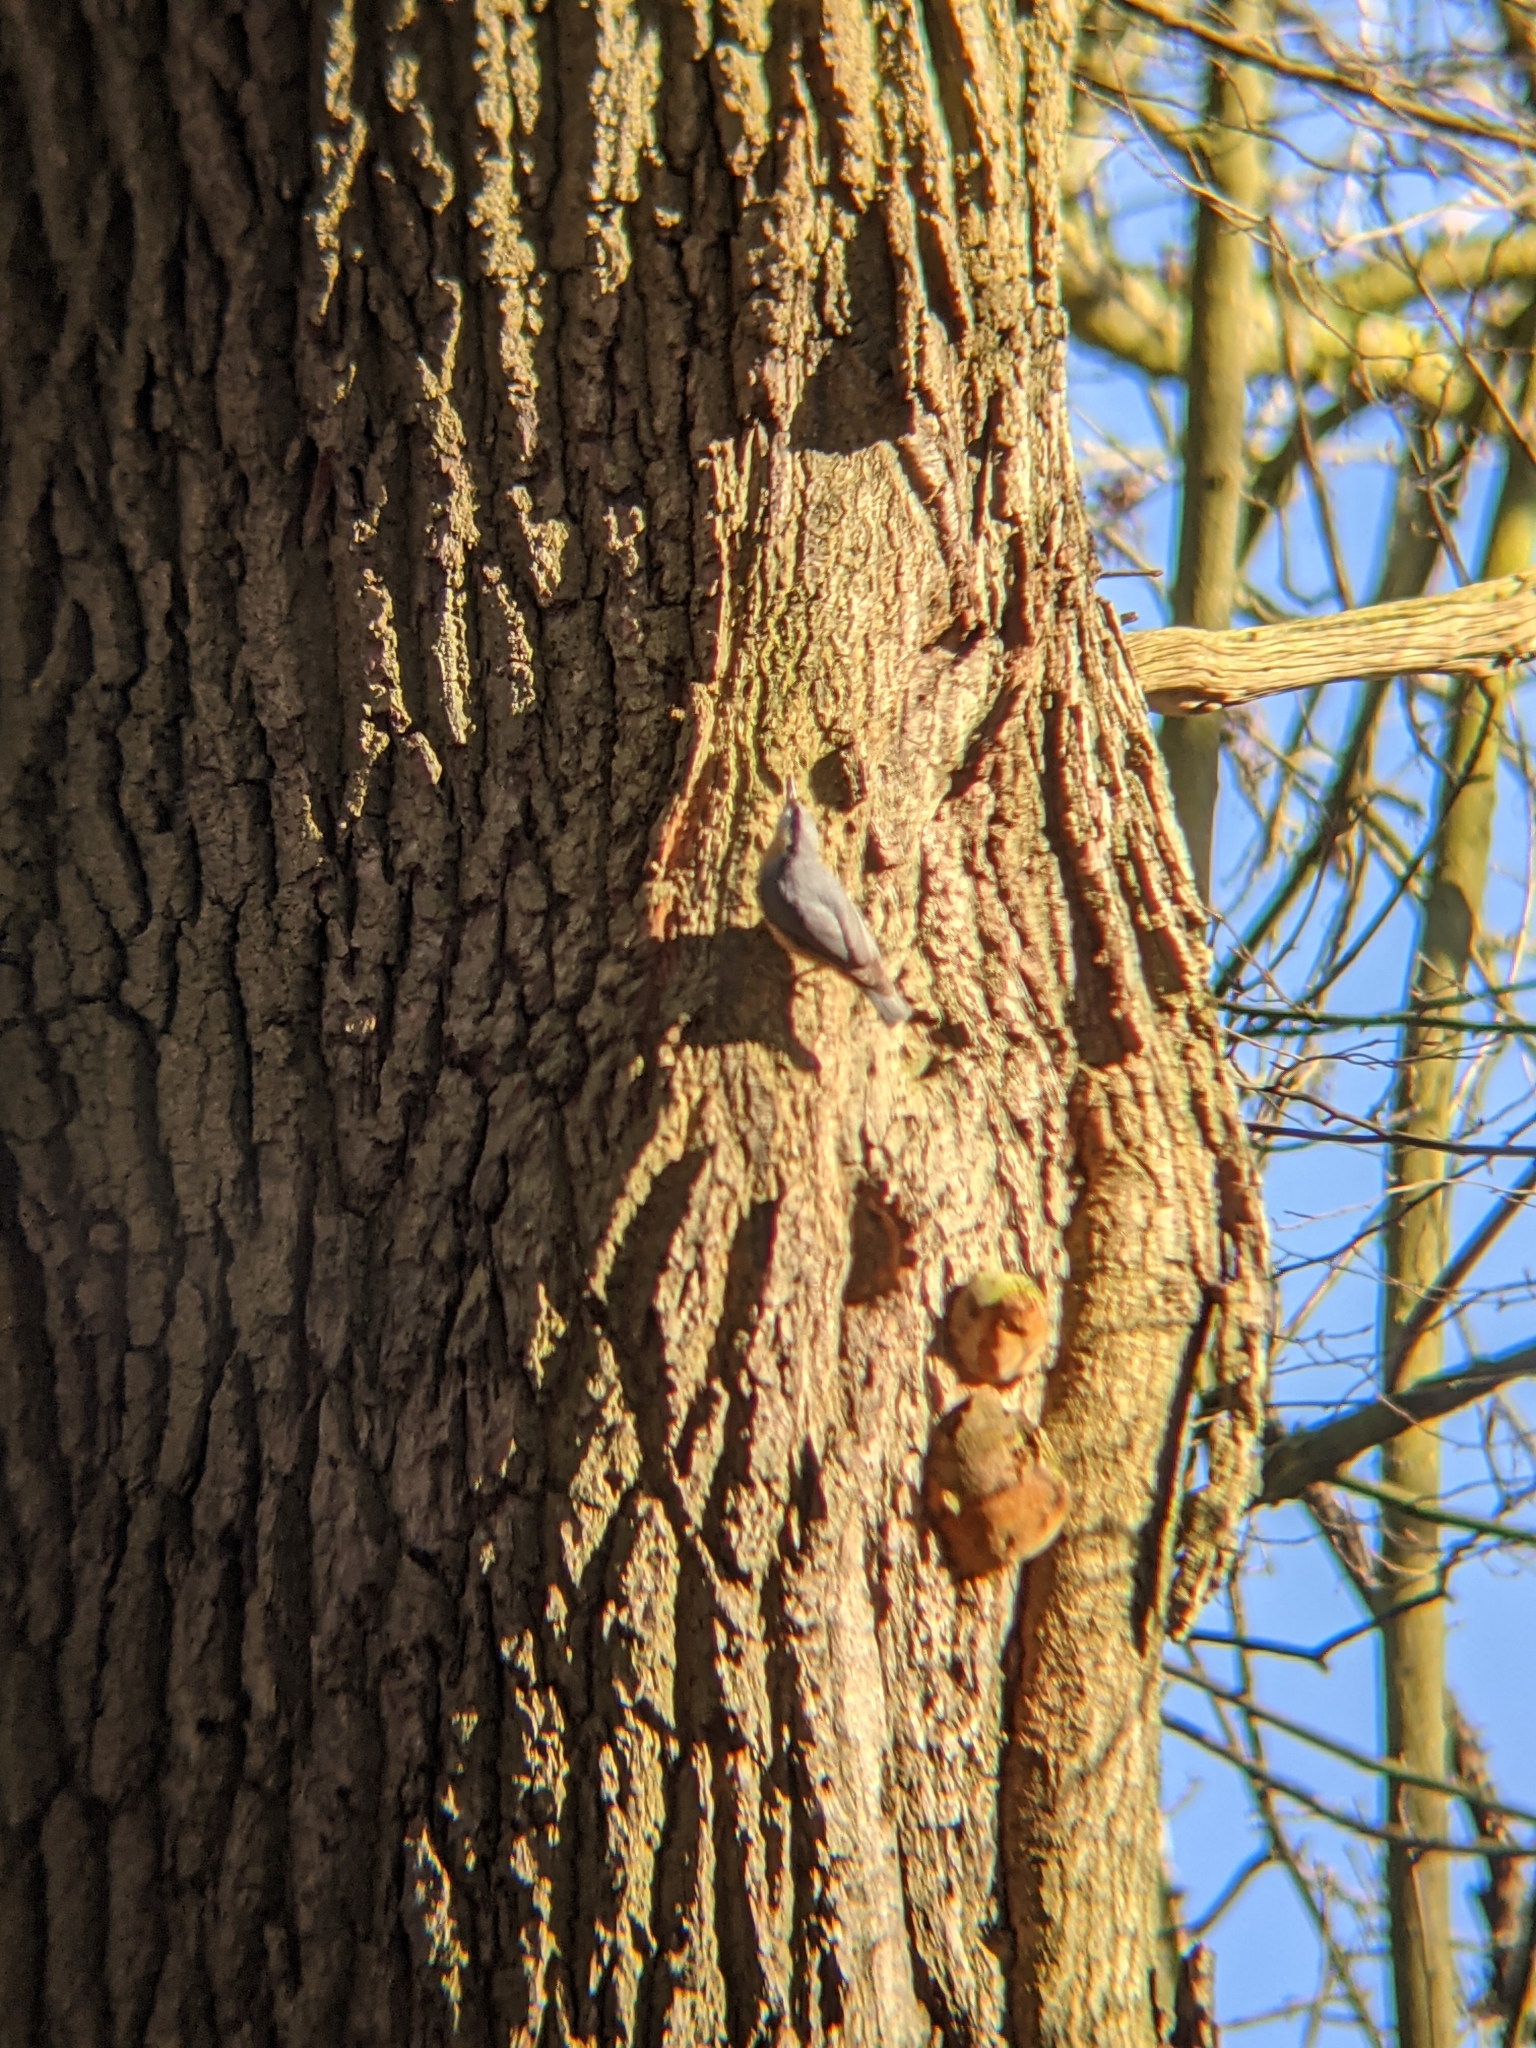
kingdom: Animalia
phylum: Chordata
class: Aves
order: Passeriformes
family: Sittidae
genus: Sitta
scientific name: Sitta europaea
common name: Eurasian nuthatch
